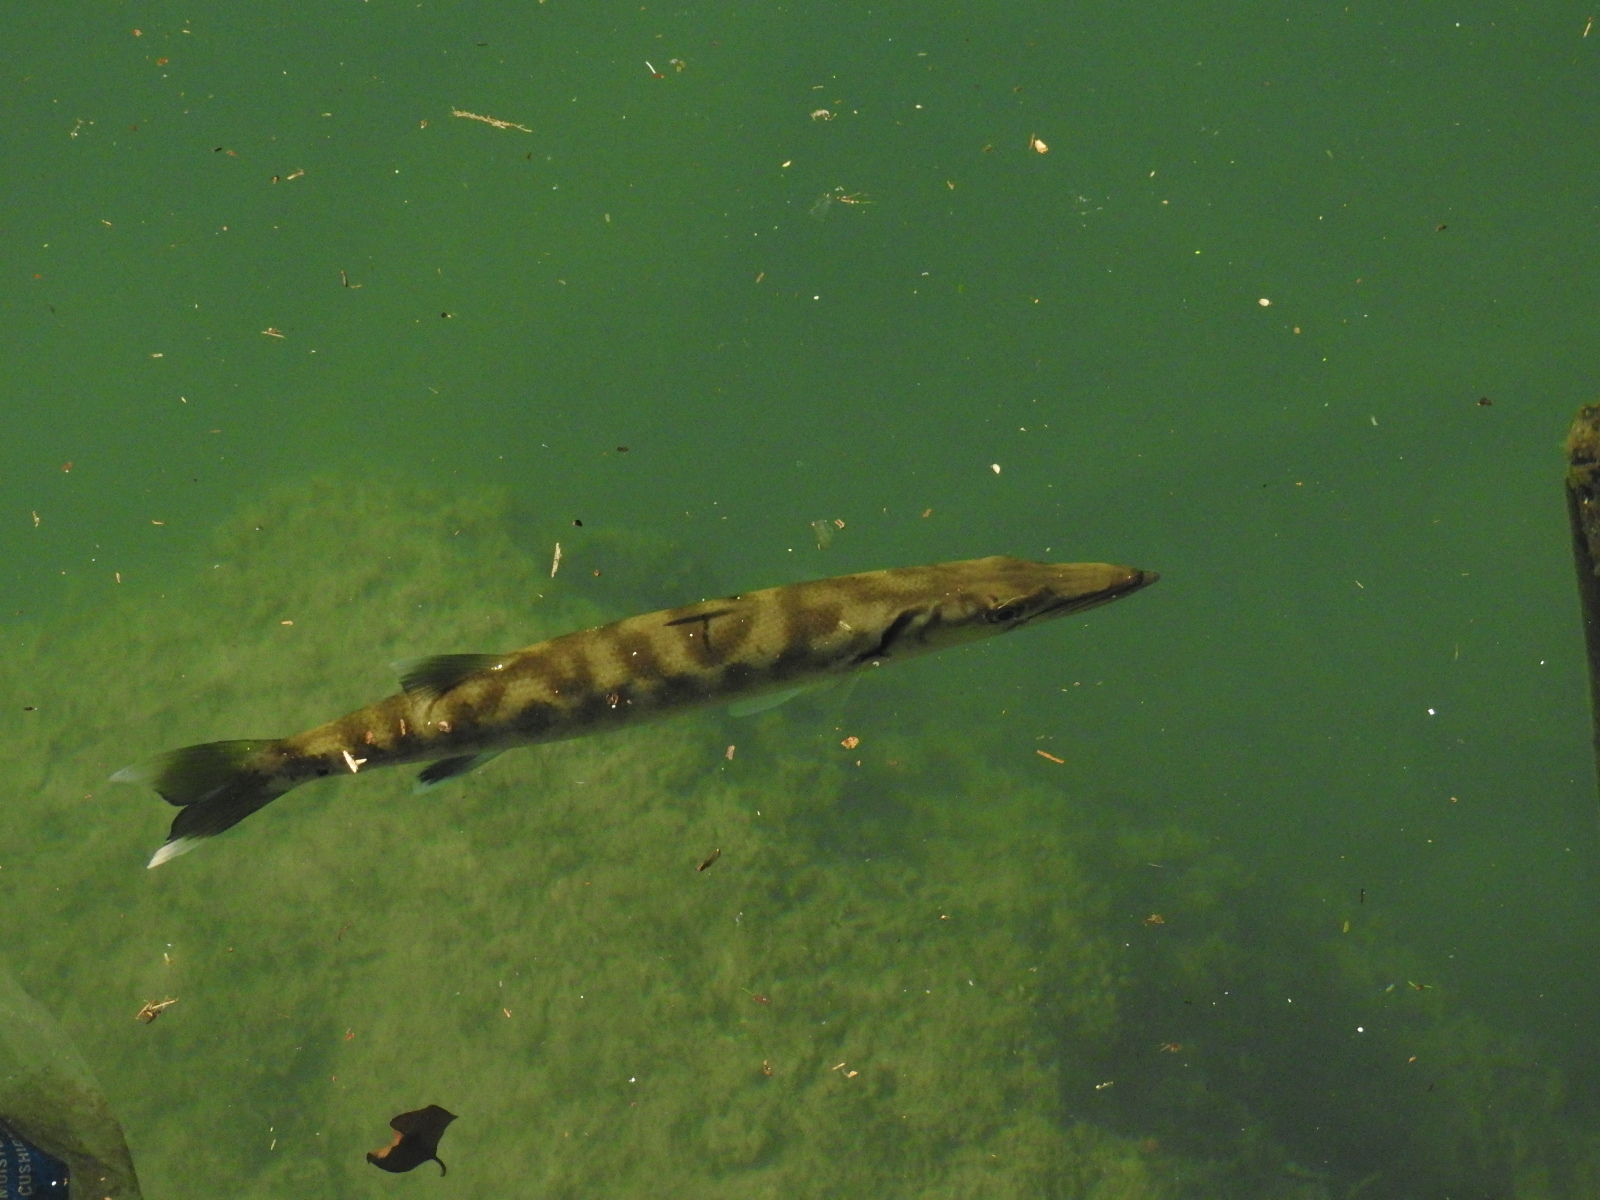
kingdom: Animalia
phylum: Chordata
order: Perciformes
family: Sphyraenidae
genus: Sphyraena
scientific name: Sphyraena barracuda
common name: Great barracuda
